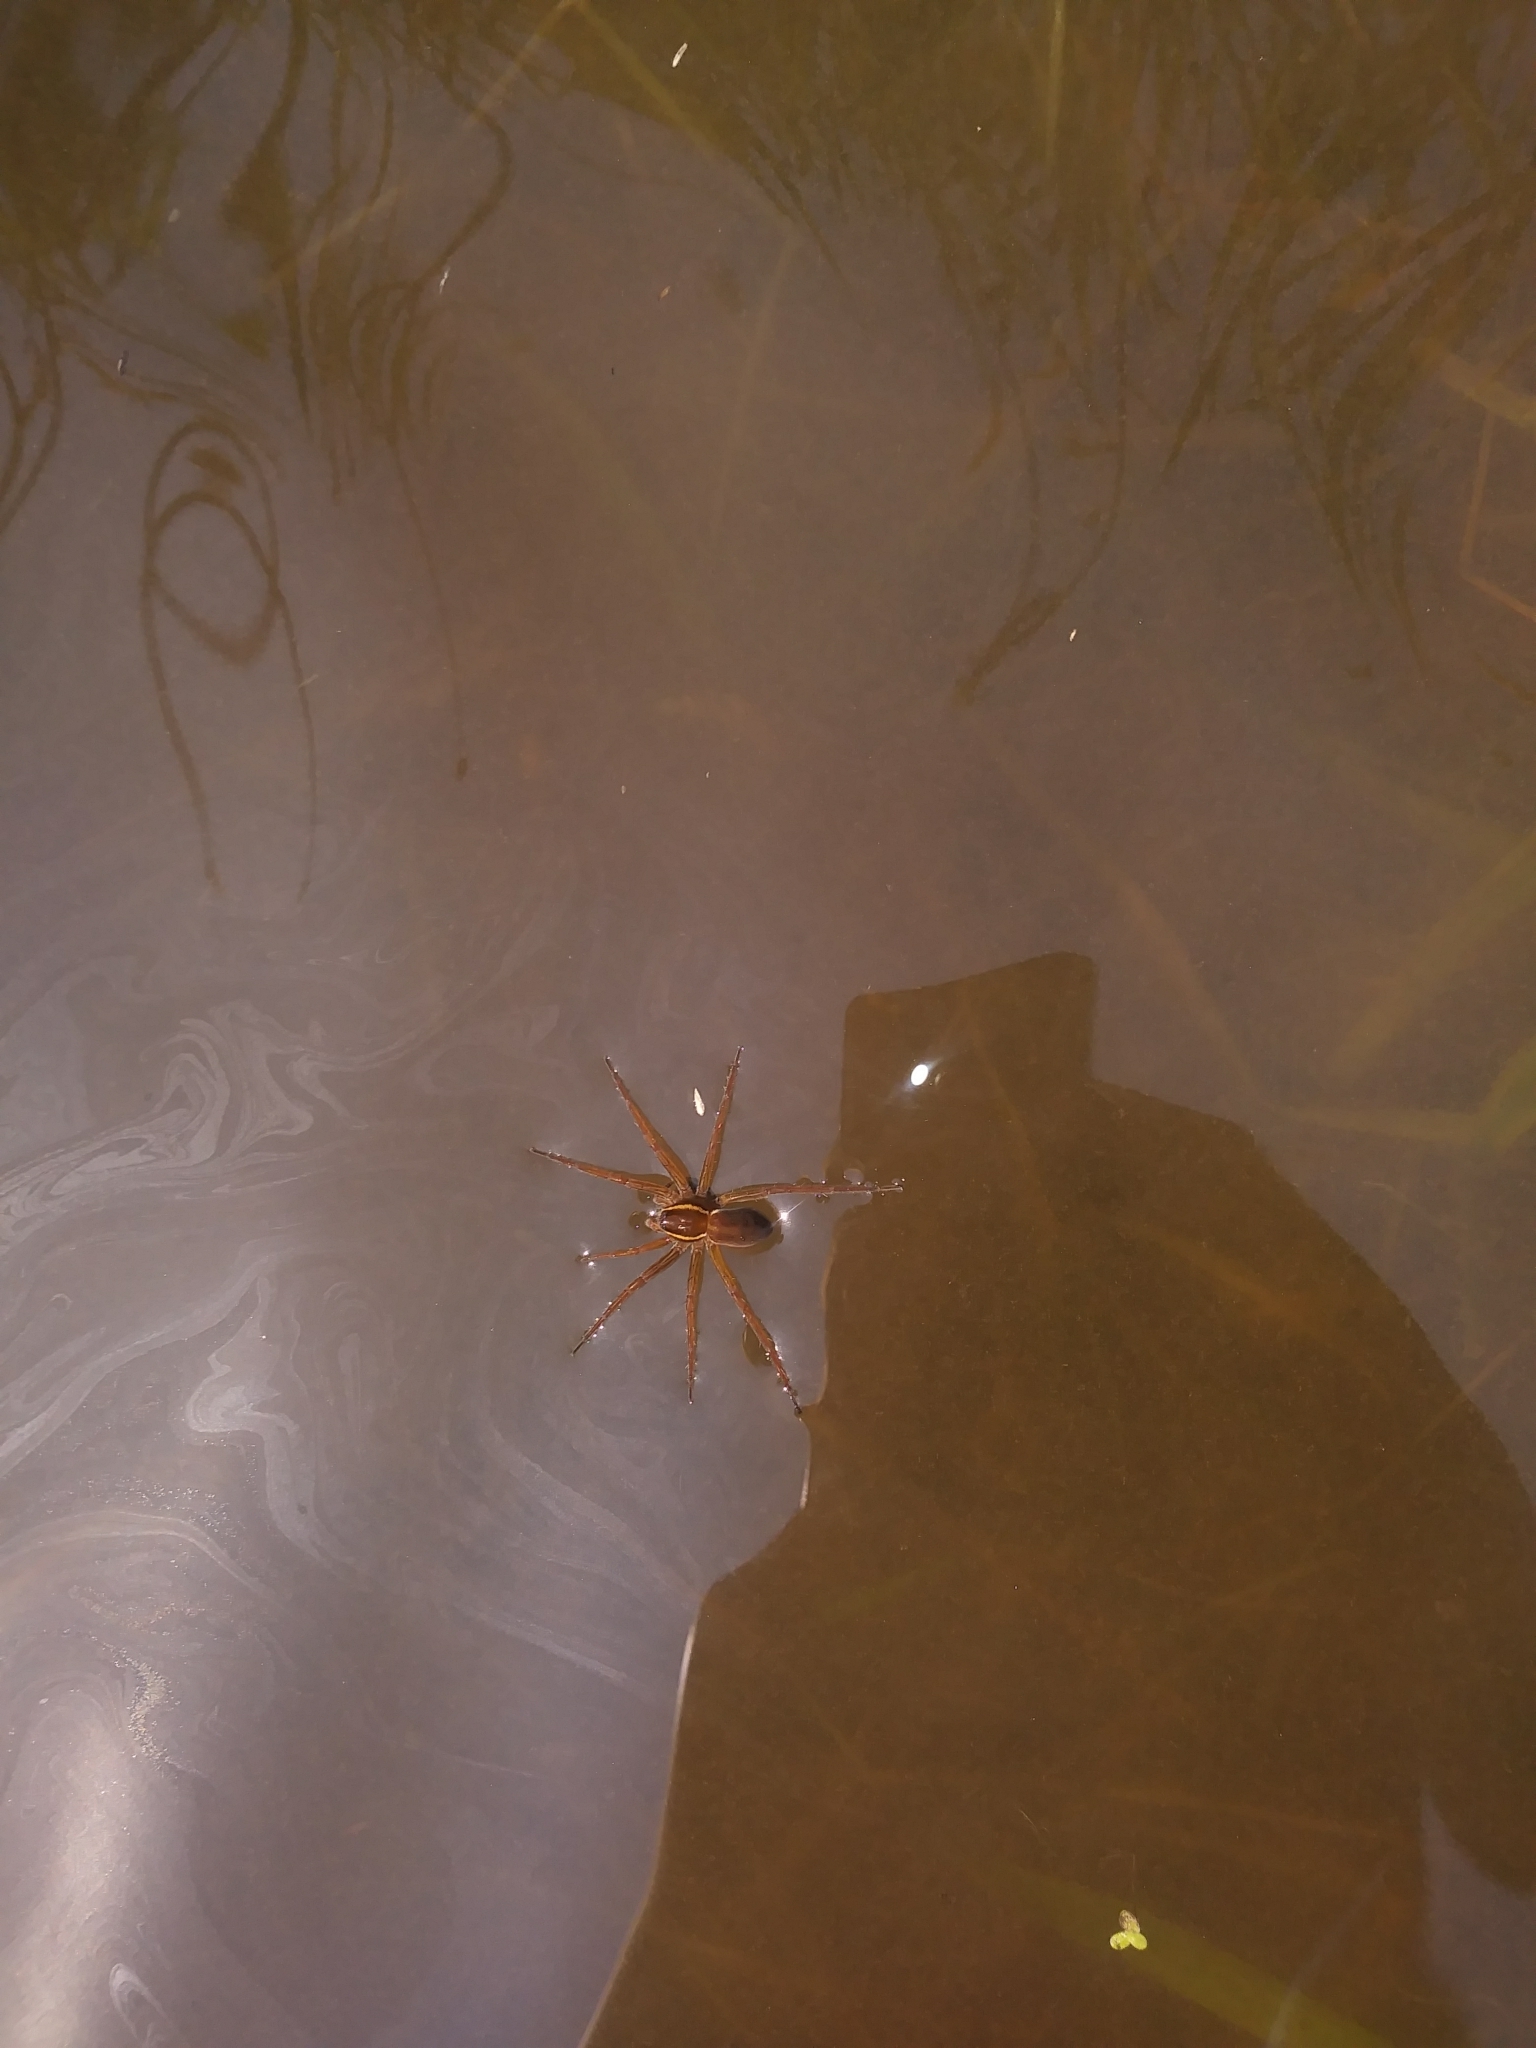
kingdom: Animalia
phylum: Arthropoda
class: Arachnida
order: Araneae
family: Pisauridae
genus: Dolomedes
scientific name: Dolomedes triton
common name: Six-spotted fishing spider
